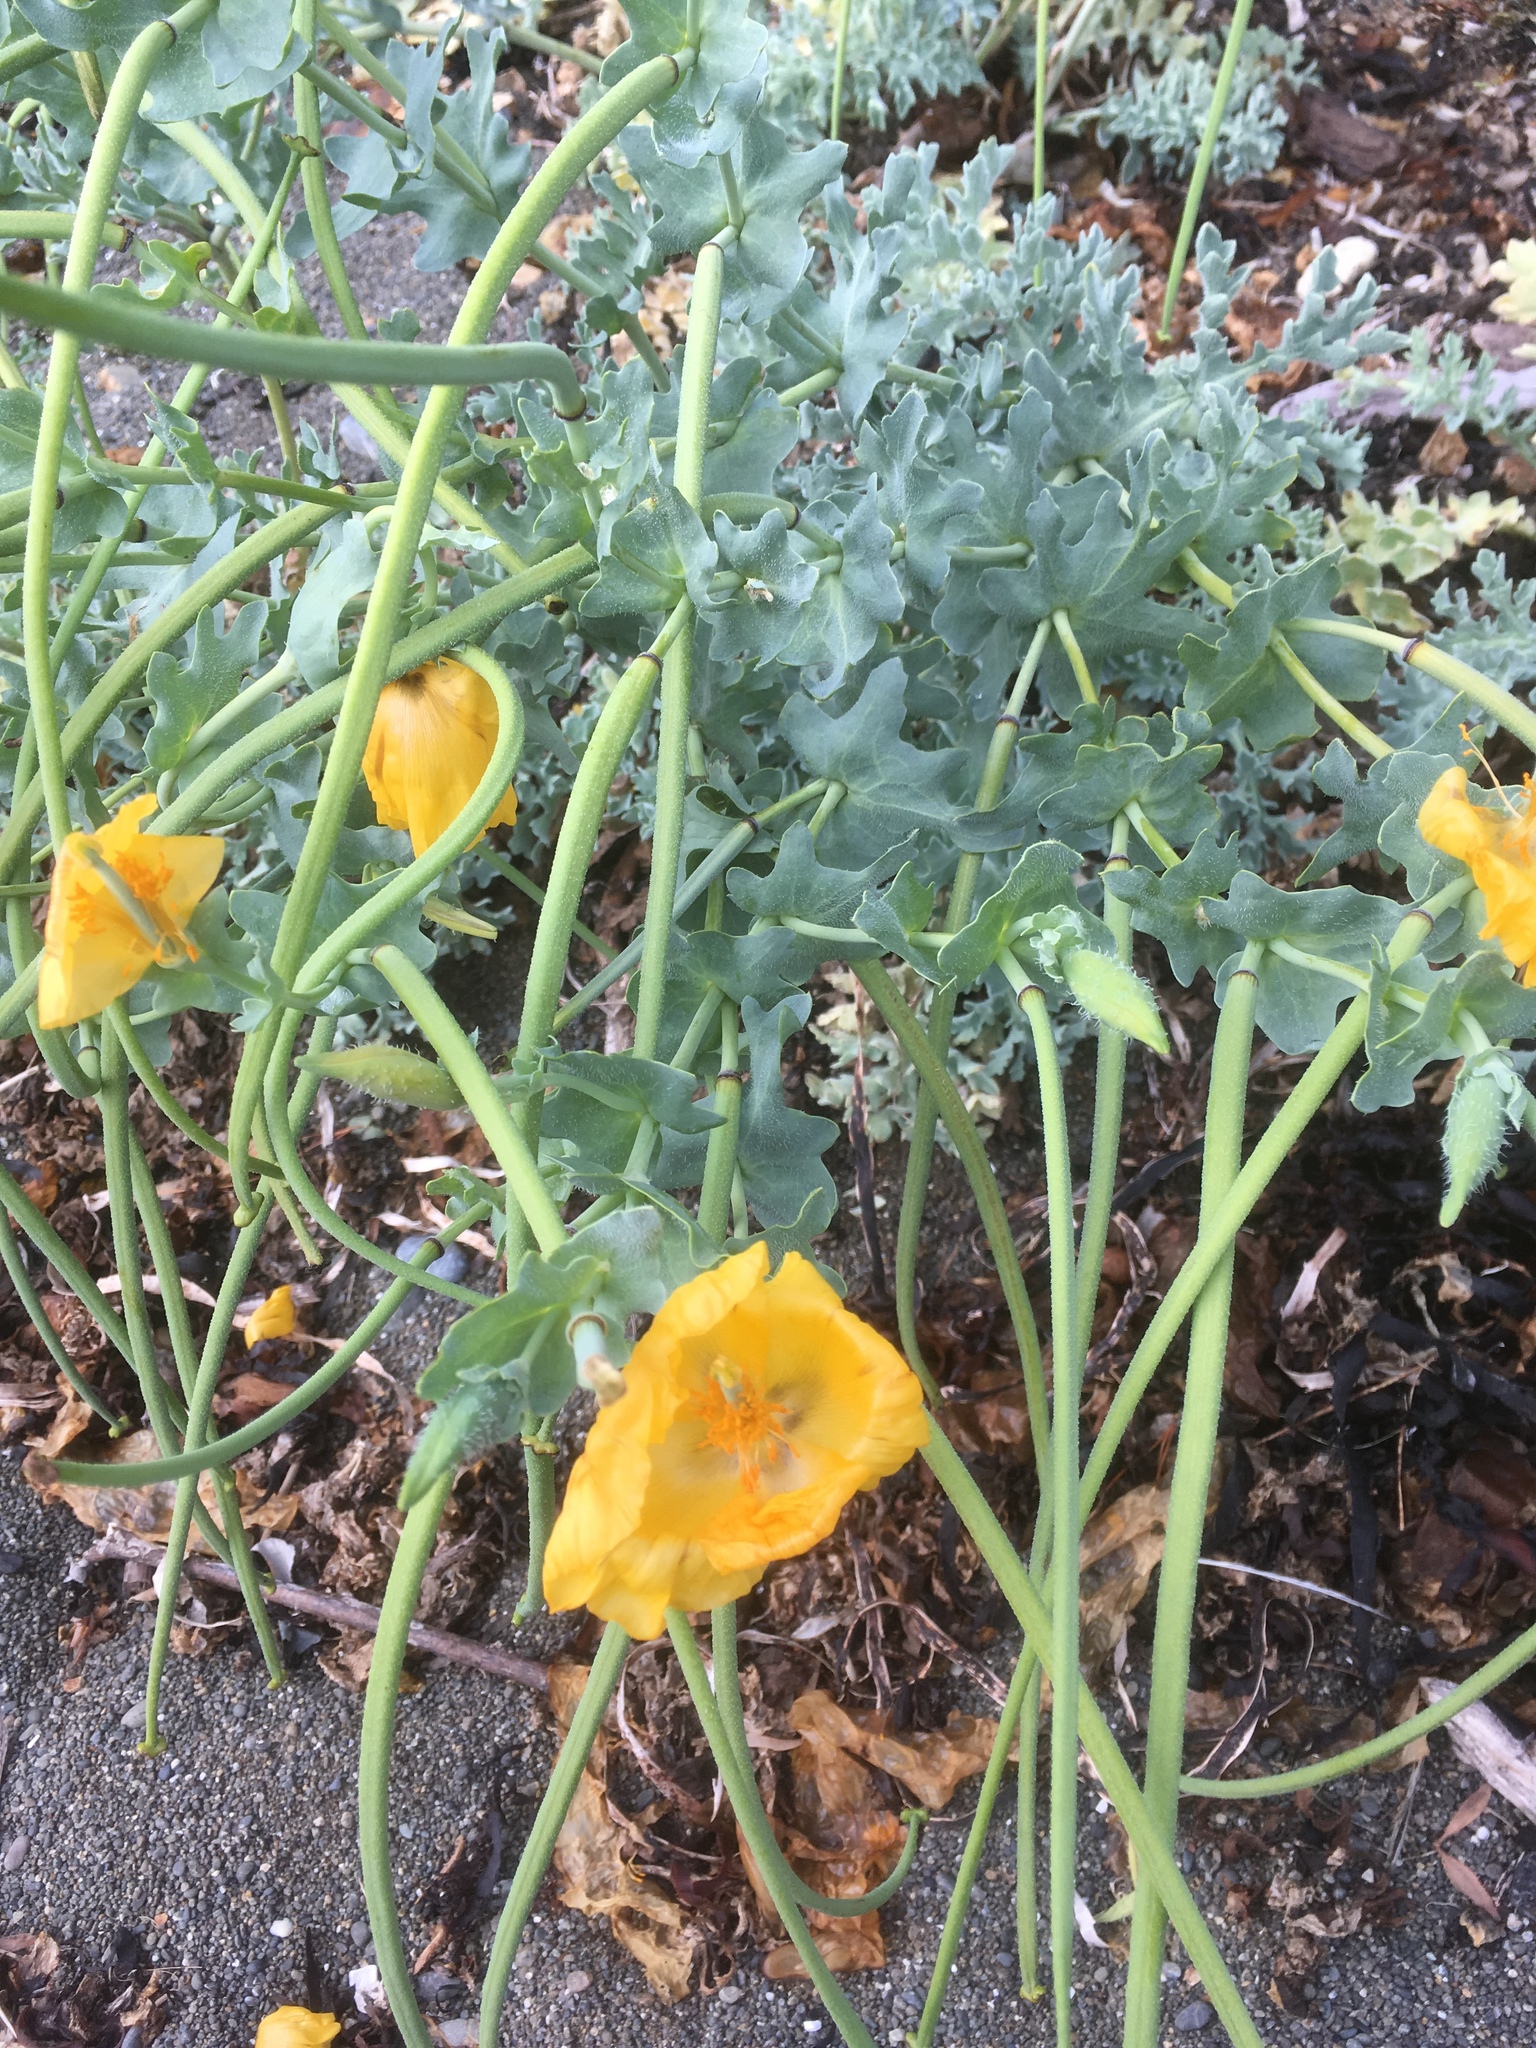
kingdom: Plantae
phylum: Tracheophyta
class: Magnoliopsida
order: Ranunculales
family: Papaveraceae
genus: Glaucium
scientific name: Glaucium flavum
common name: Yellow horned-poppy
